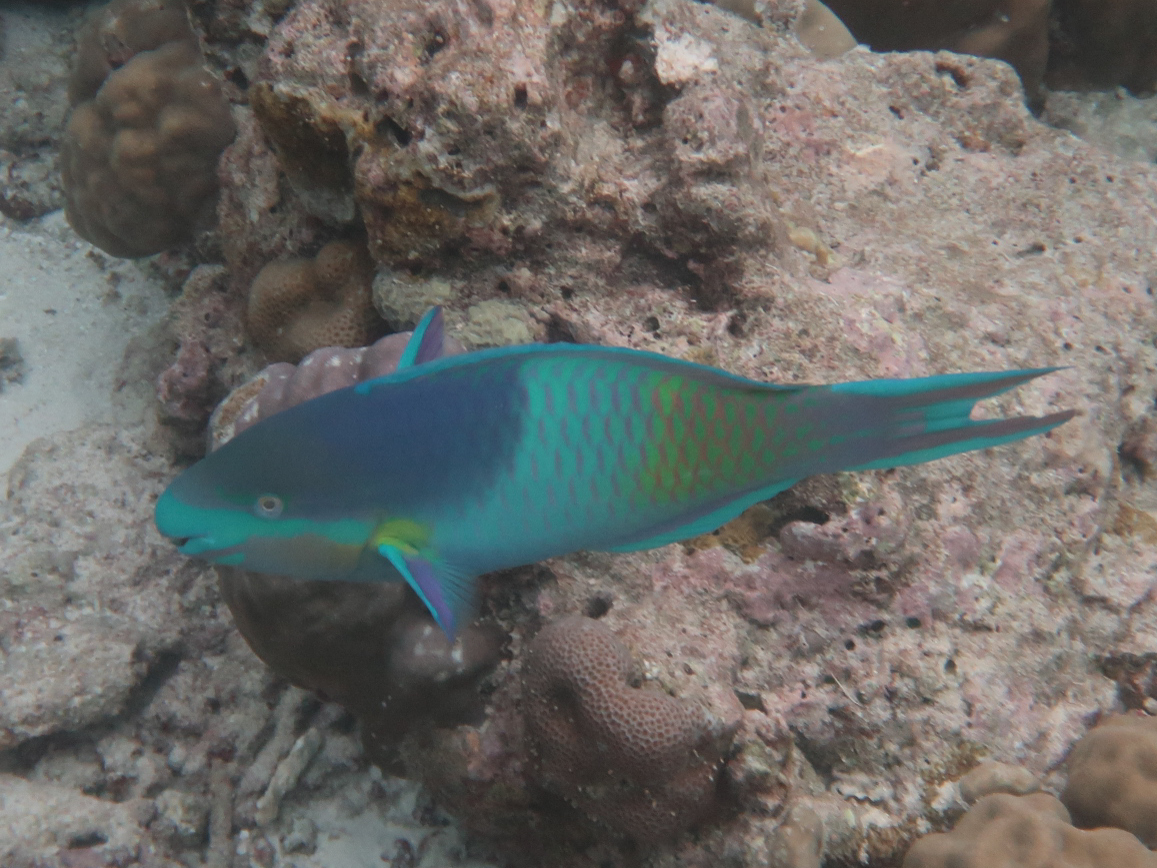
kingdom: Animalia
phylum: Chordata
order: Perciformes
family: Scaridae
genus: Scarus
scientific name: Scarus scaber
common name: Dusky-capped parrotfish
